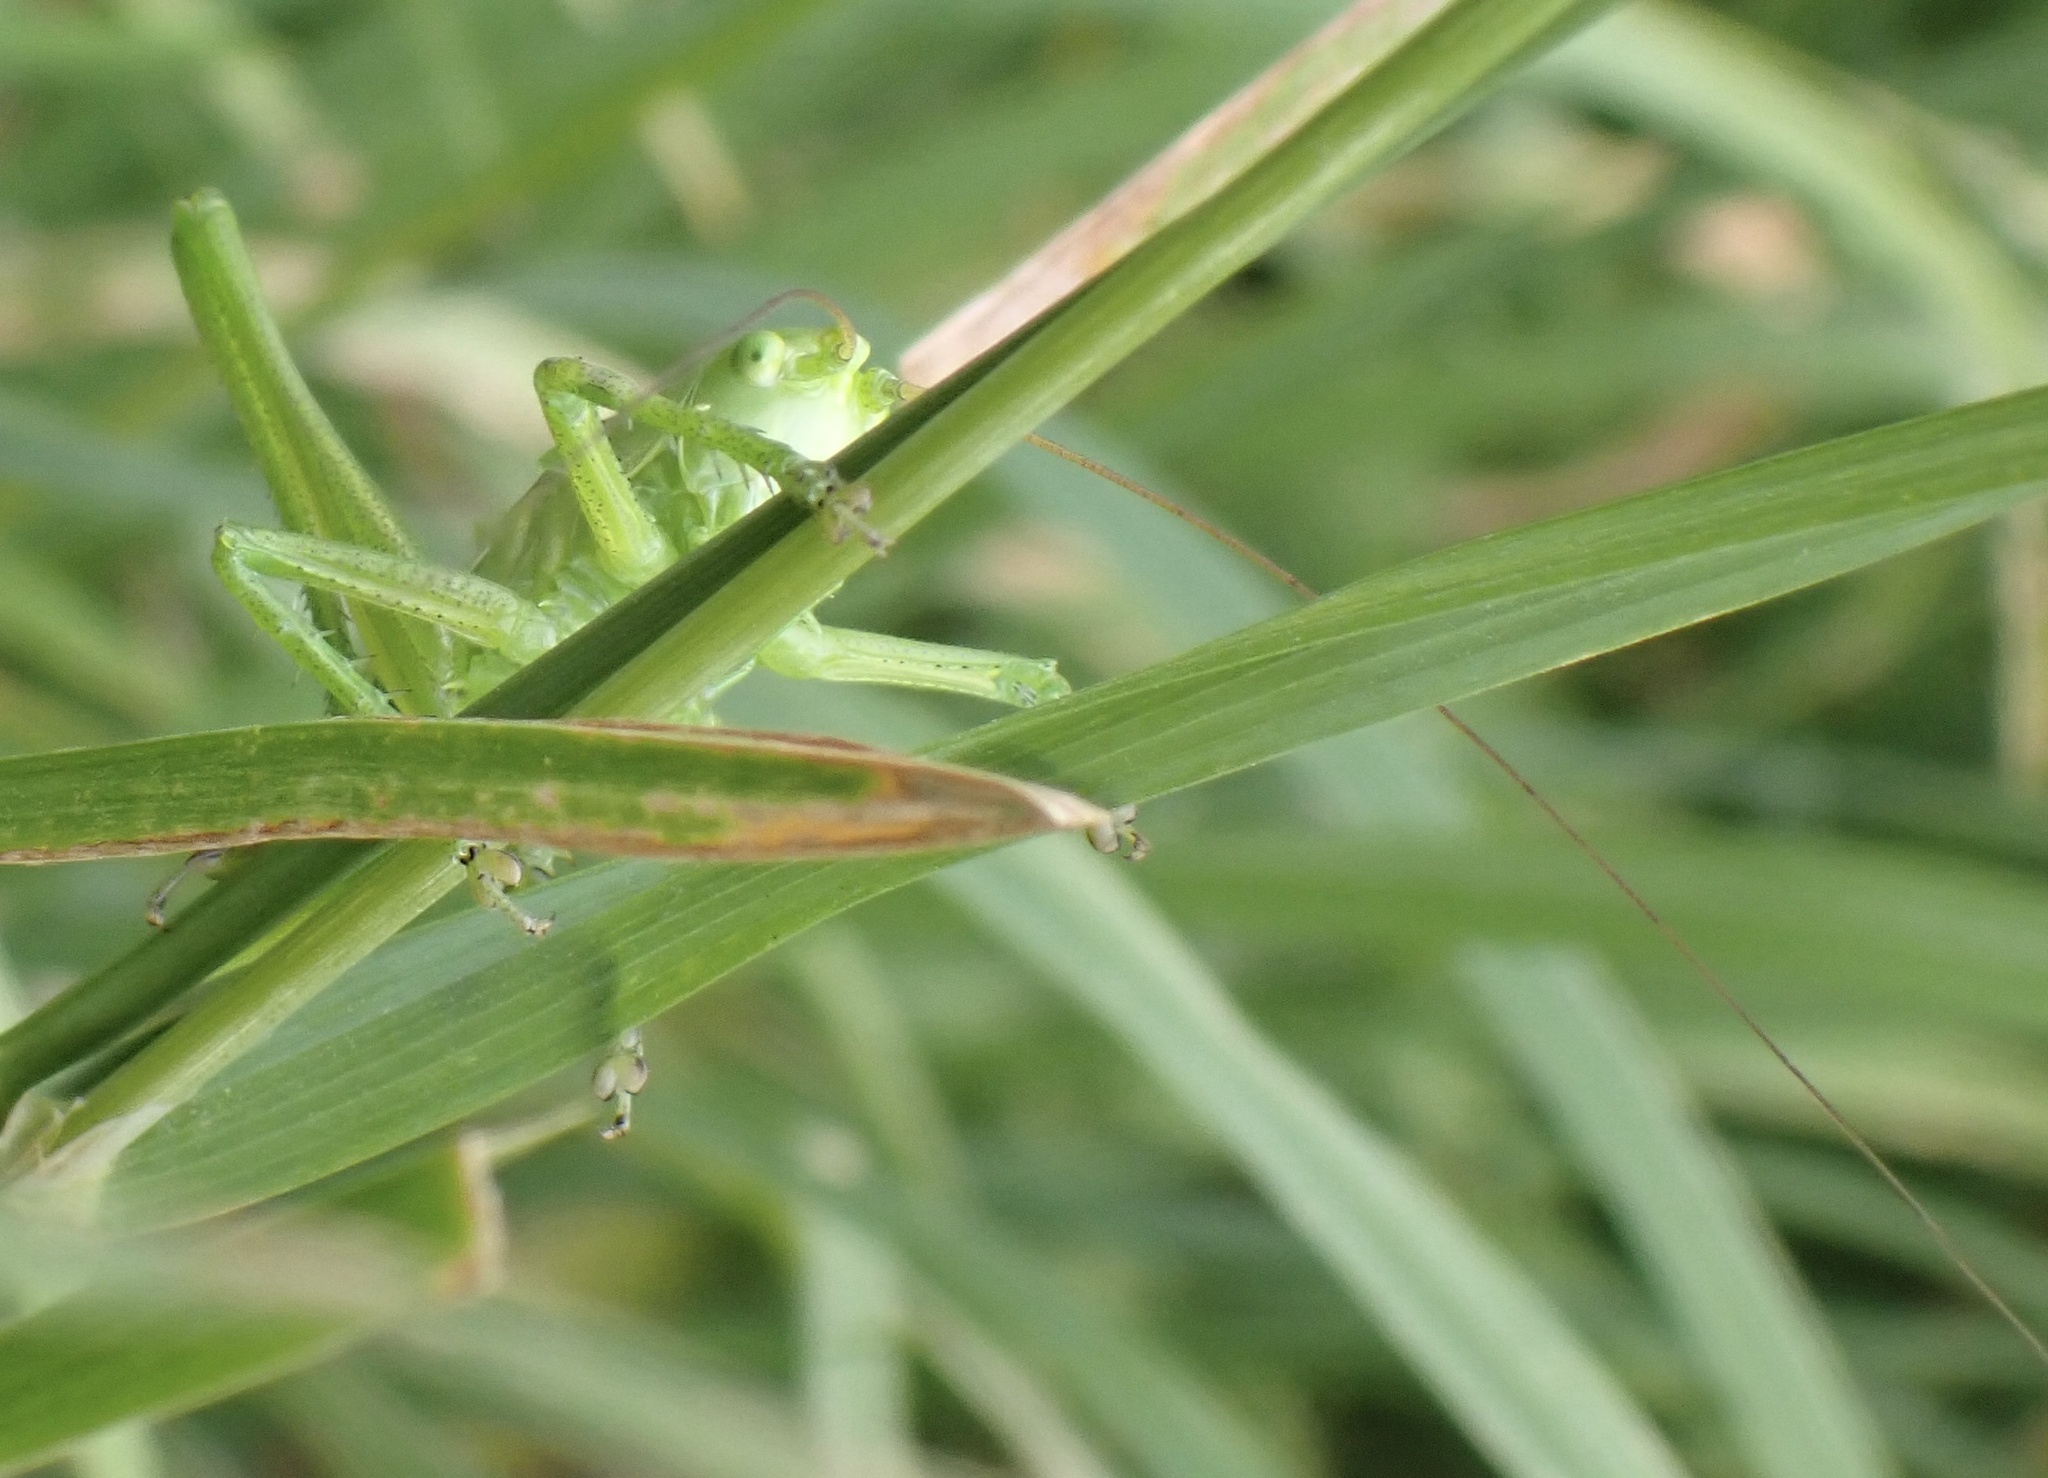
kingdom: Animalia
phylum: Arthropoda
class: Insecta
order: Orthoptera
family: Tettigoniidae
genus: Tettigonia
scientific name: Tettigonia viridissima
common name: Great green bush-cricket
